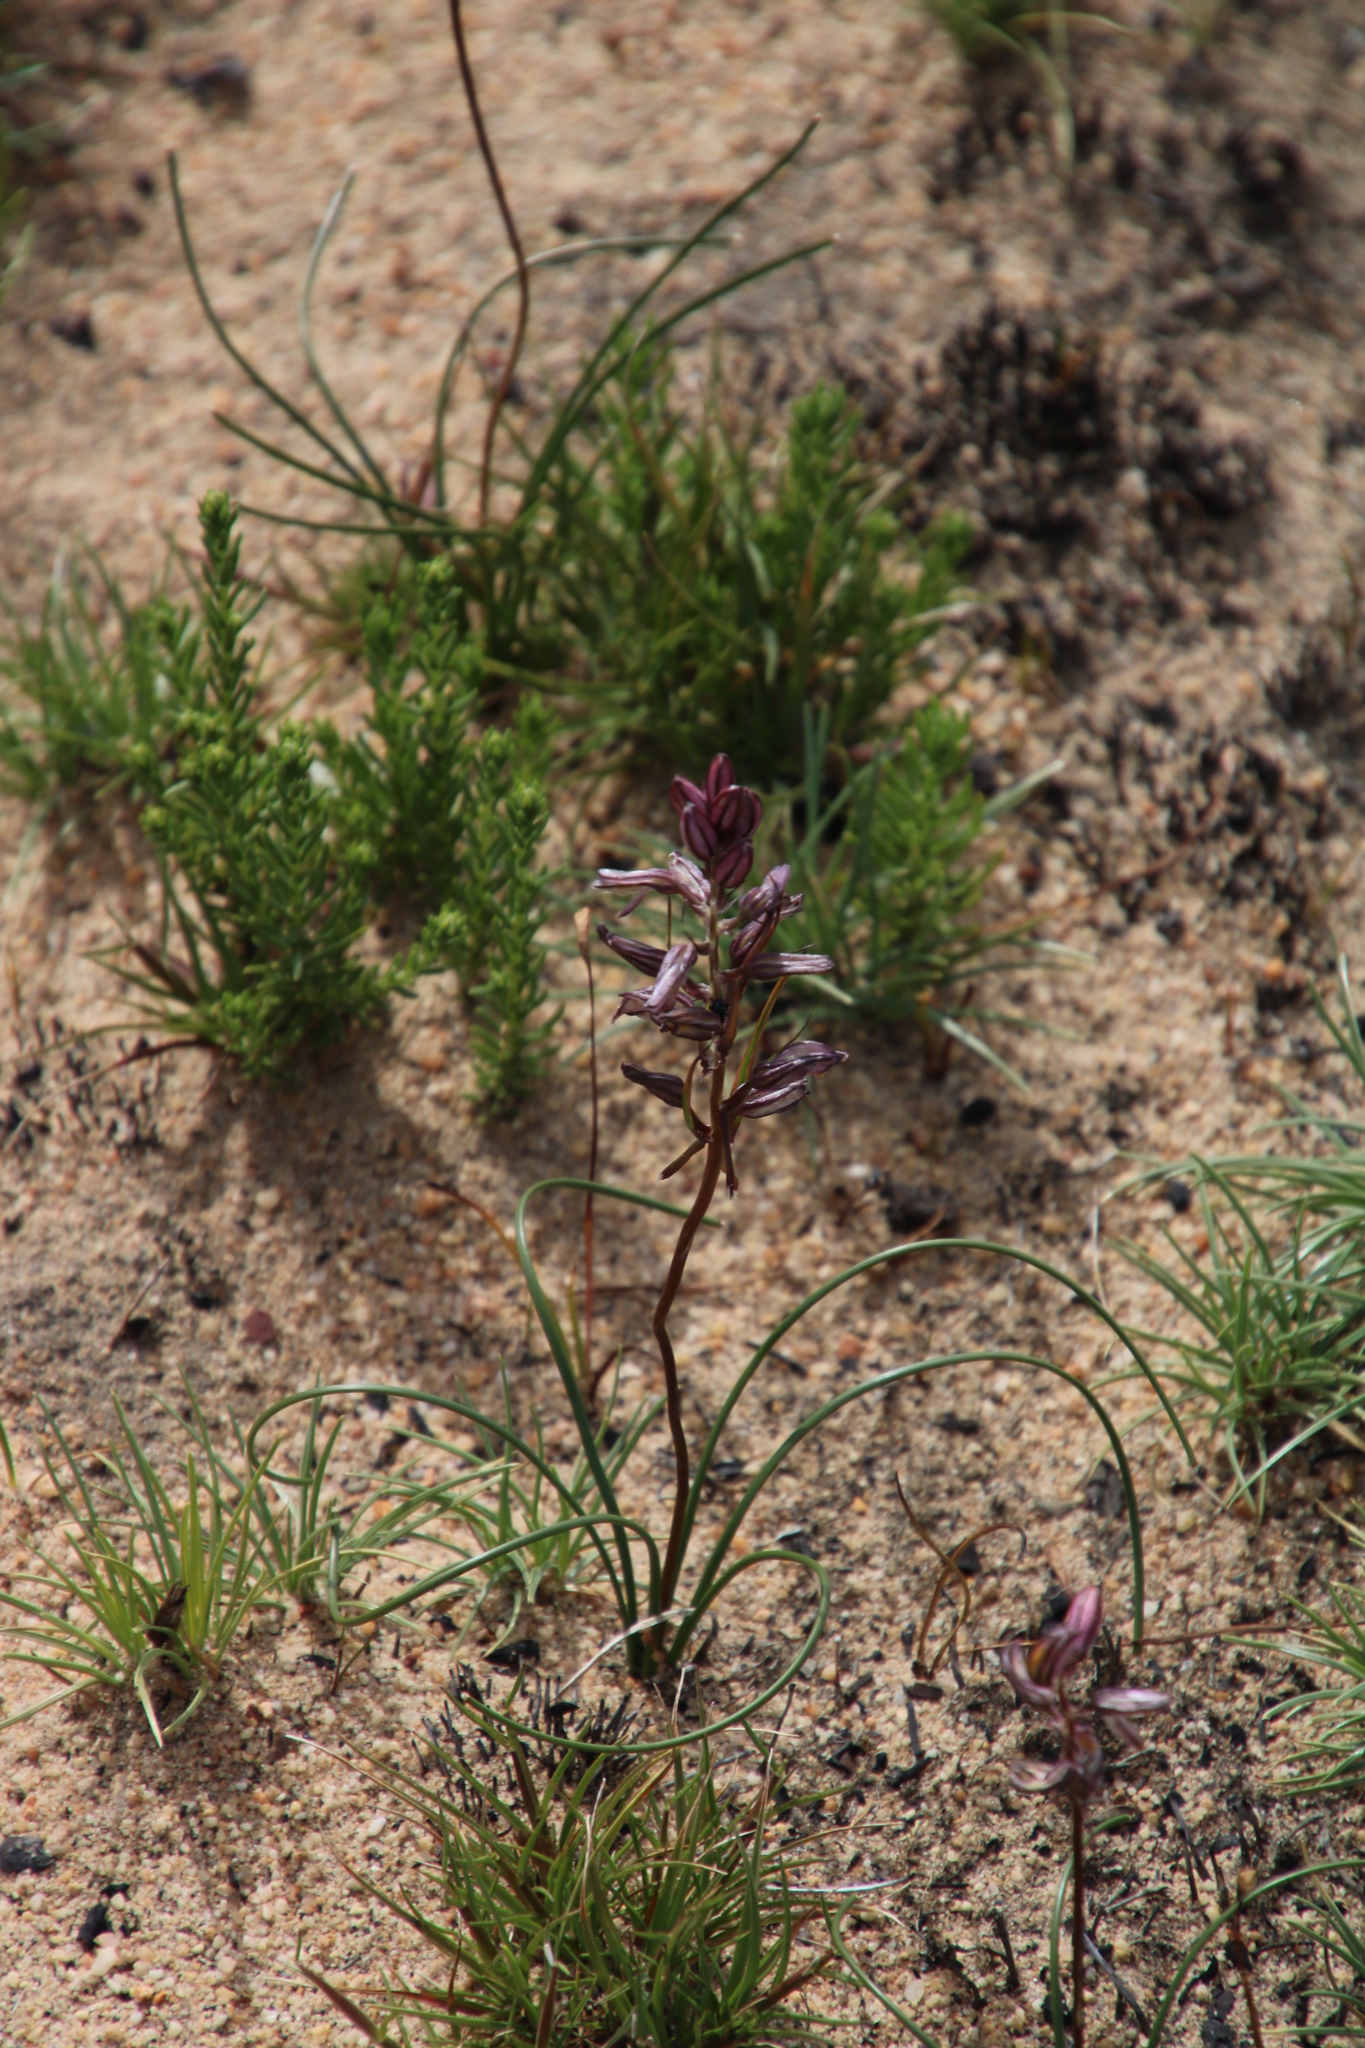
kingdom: Plantae
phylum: Tracheophyta
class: Liliopsida
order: Asparagales
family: Asparagaceae
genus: Drimia
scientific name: Drimia exuviata
